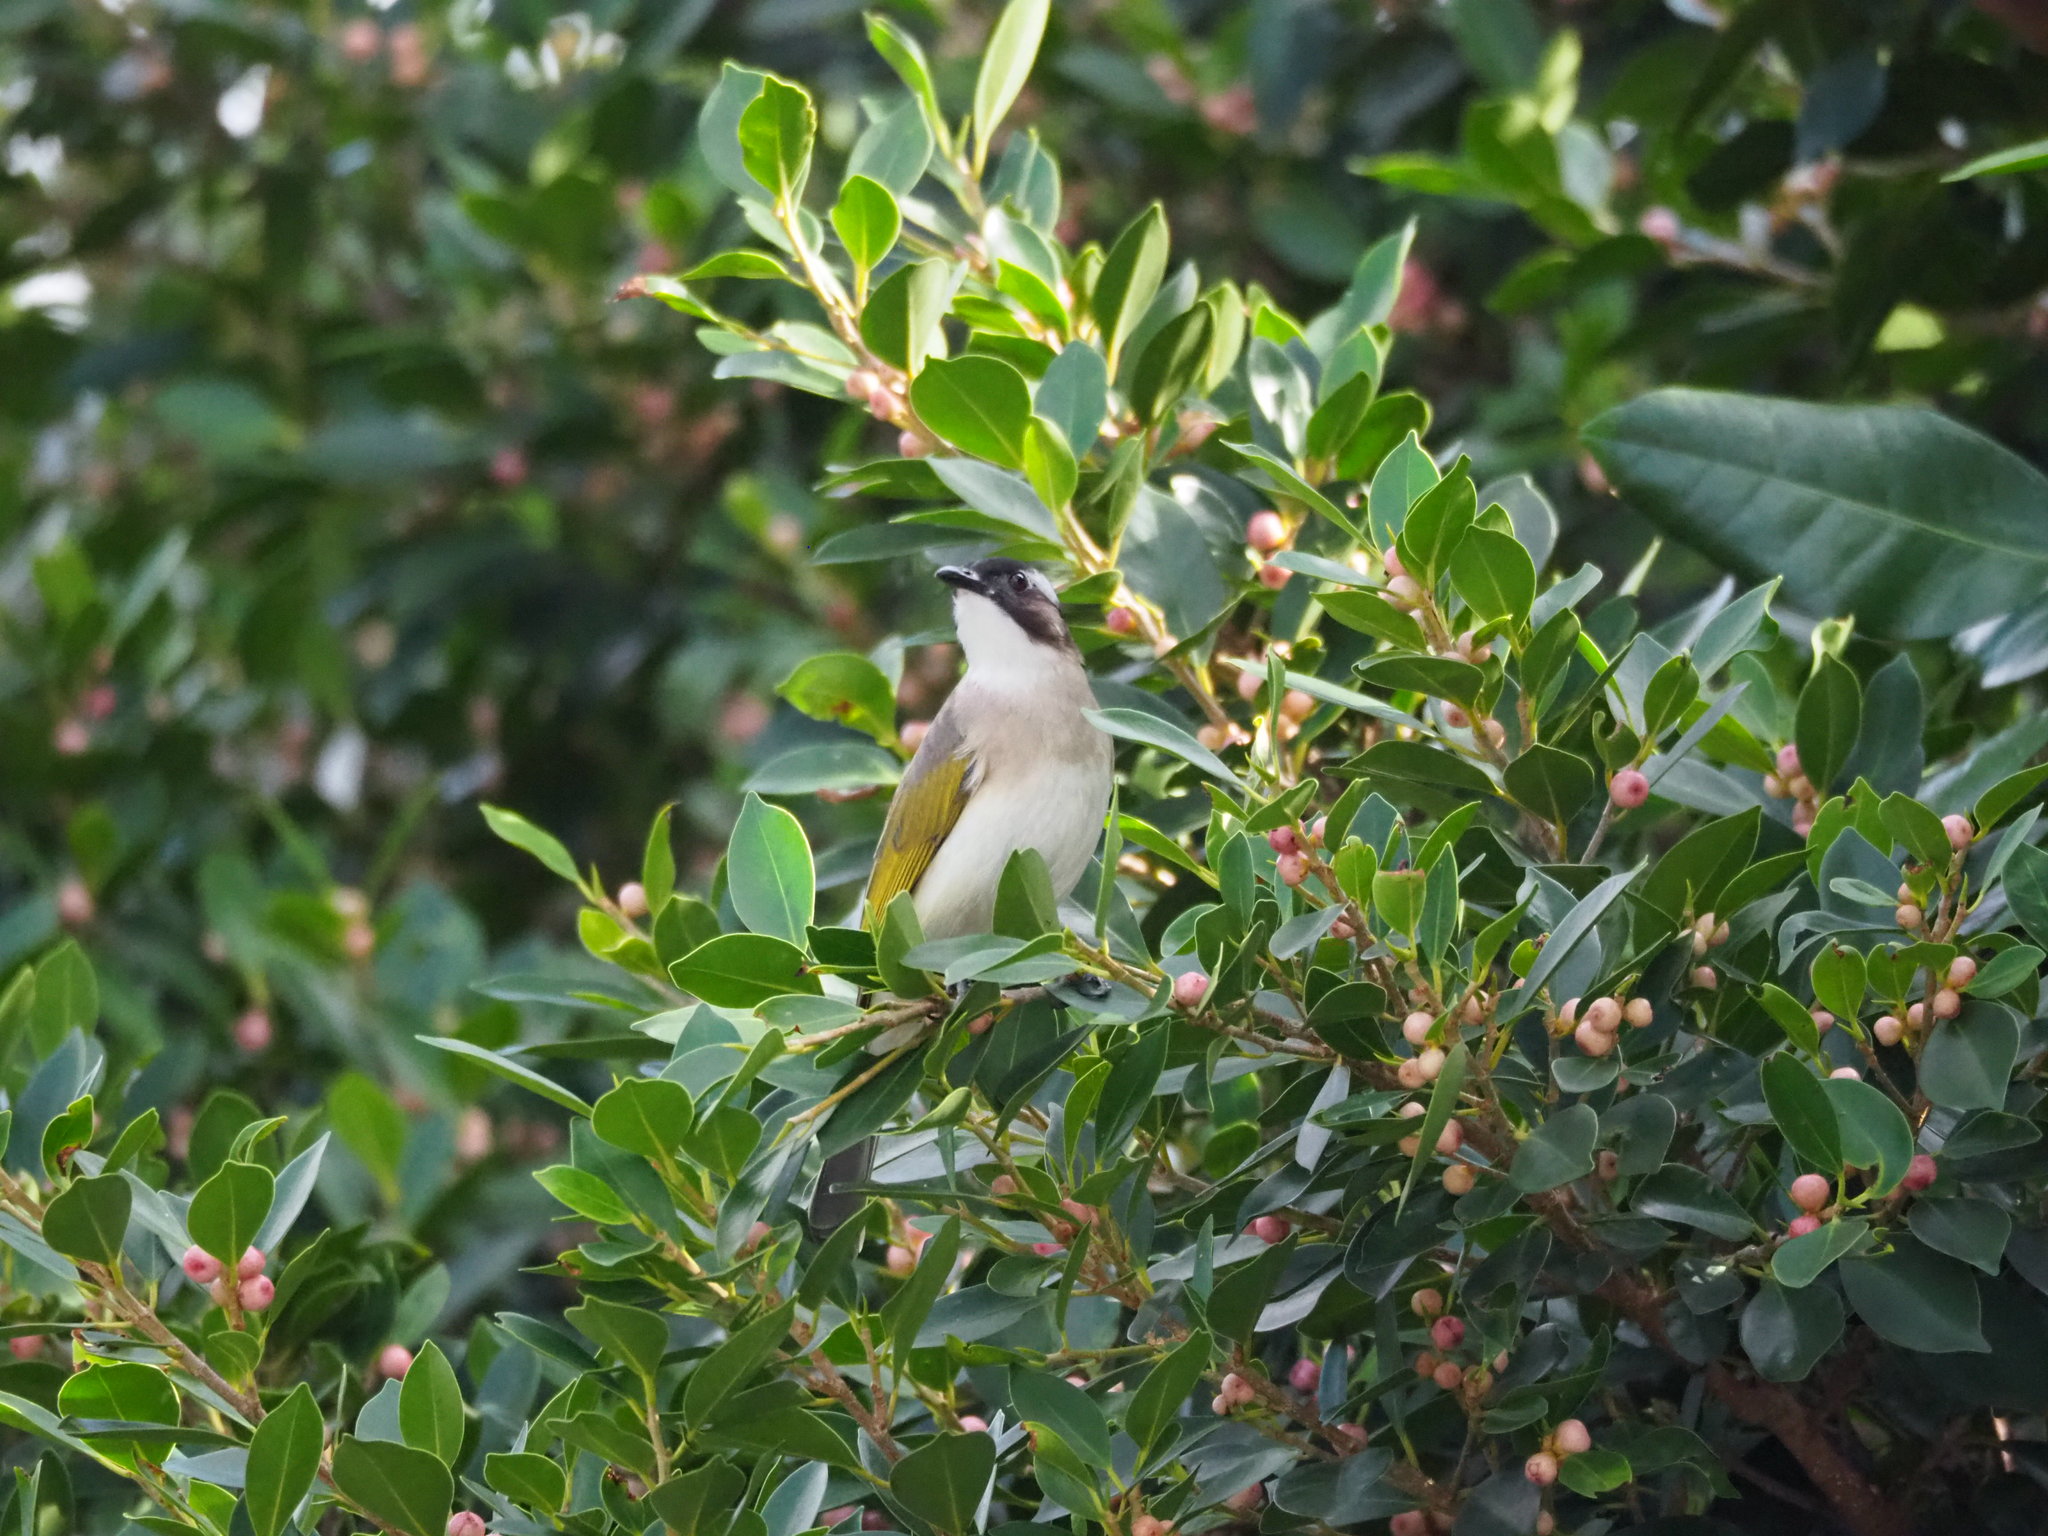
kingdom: Animalia
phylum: Chordata
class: Aves
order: Passeriformes
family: Pycnonotidae
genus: Pycnonotus
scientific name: Pycnonotus sinensis
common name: Light-vented bulbul
